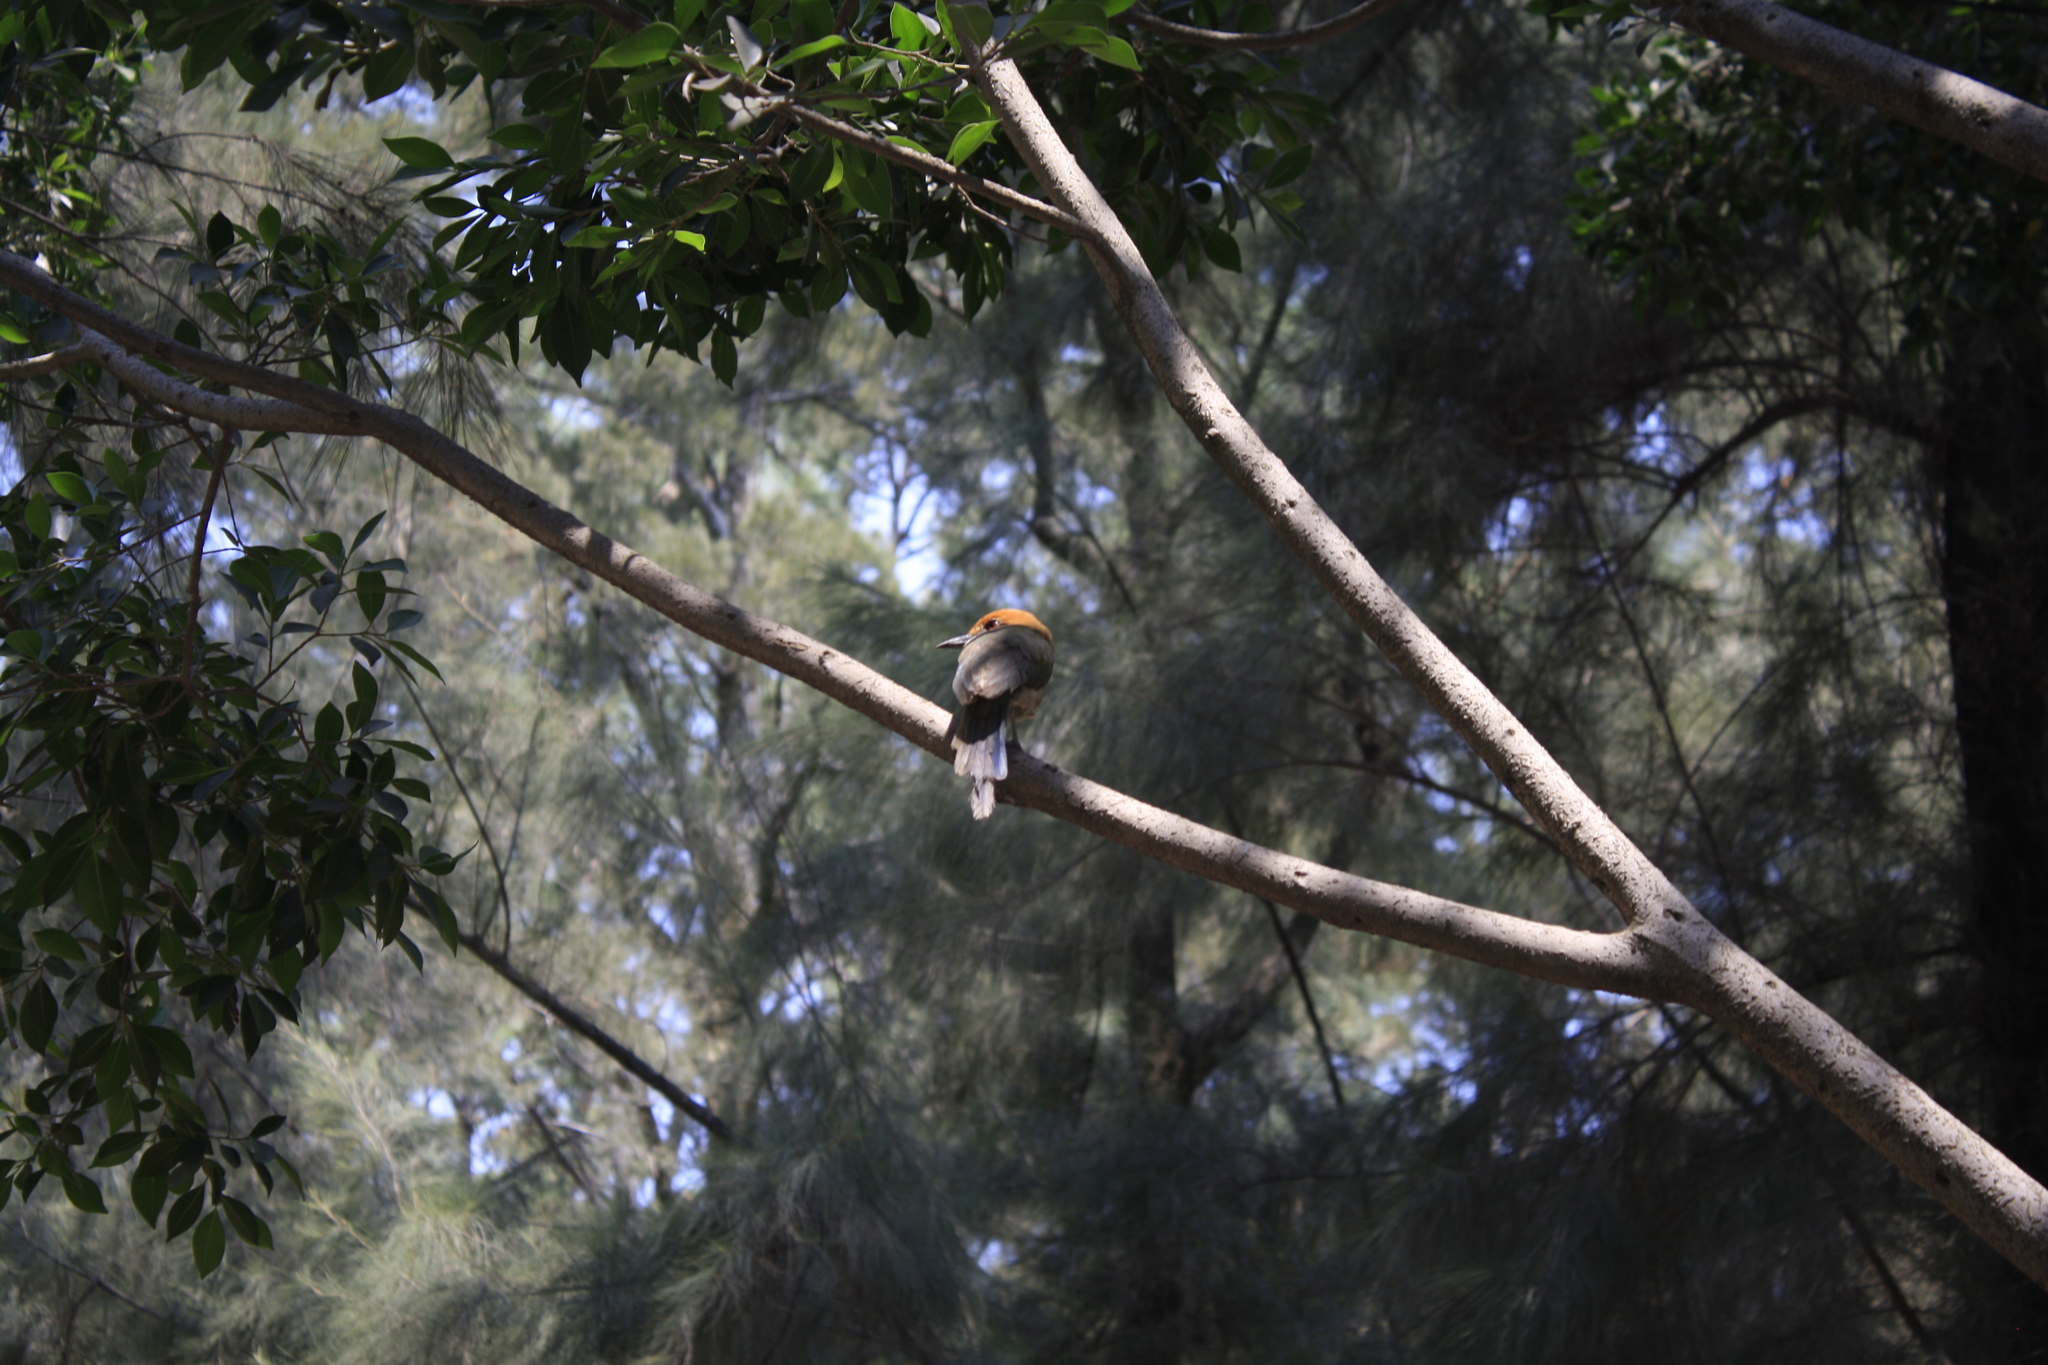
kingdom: Animalia
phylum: Chordata
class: Aves
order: Coraciiformes
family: Momotidae
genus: Momotus
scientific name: Momotus mexicanus
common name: Russet-crowned motmot
